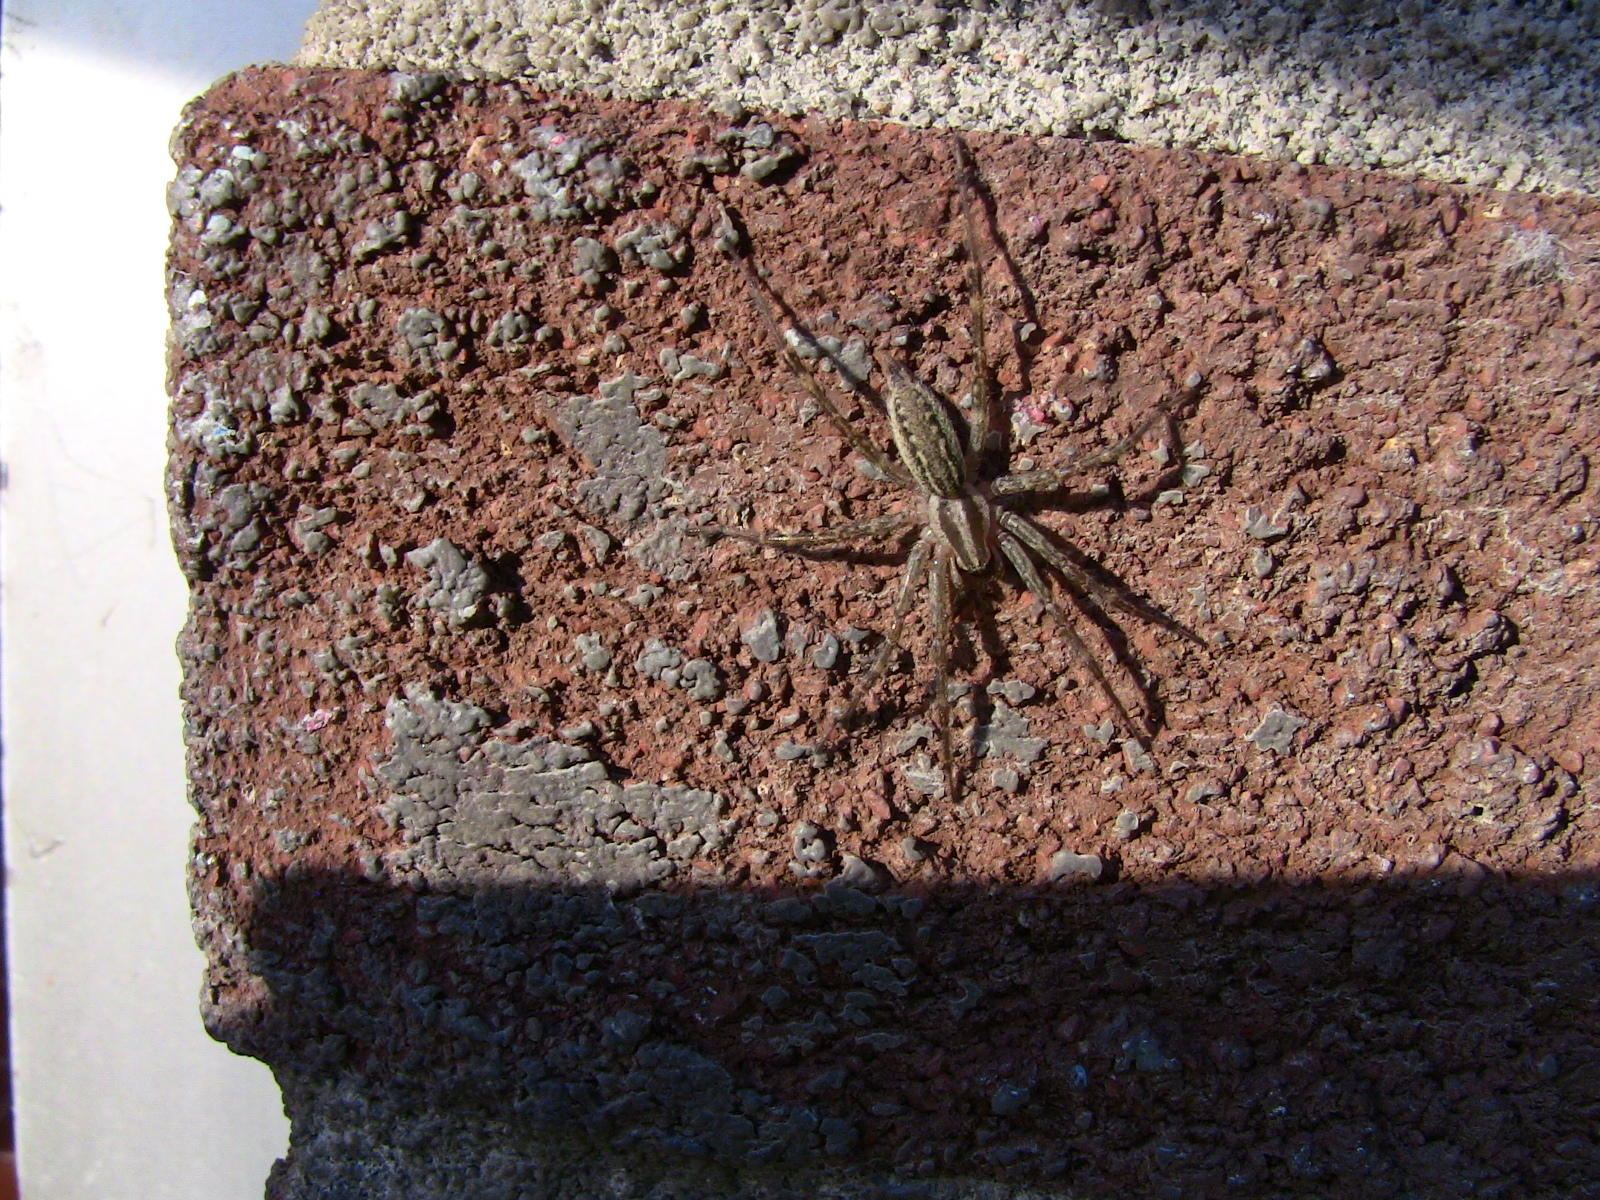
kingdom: Animalia
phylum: Arthropoda
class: Arachnida
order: Araneae
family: Agelenidae
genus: Agelenopsis
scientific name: Agelenopsis
